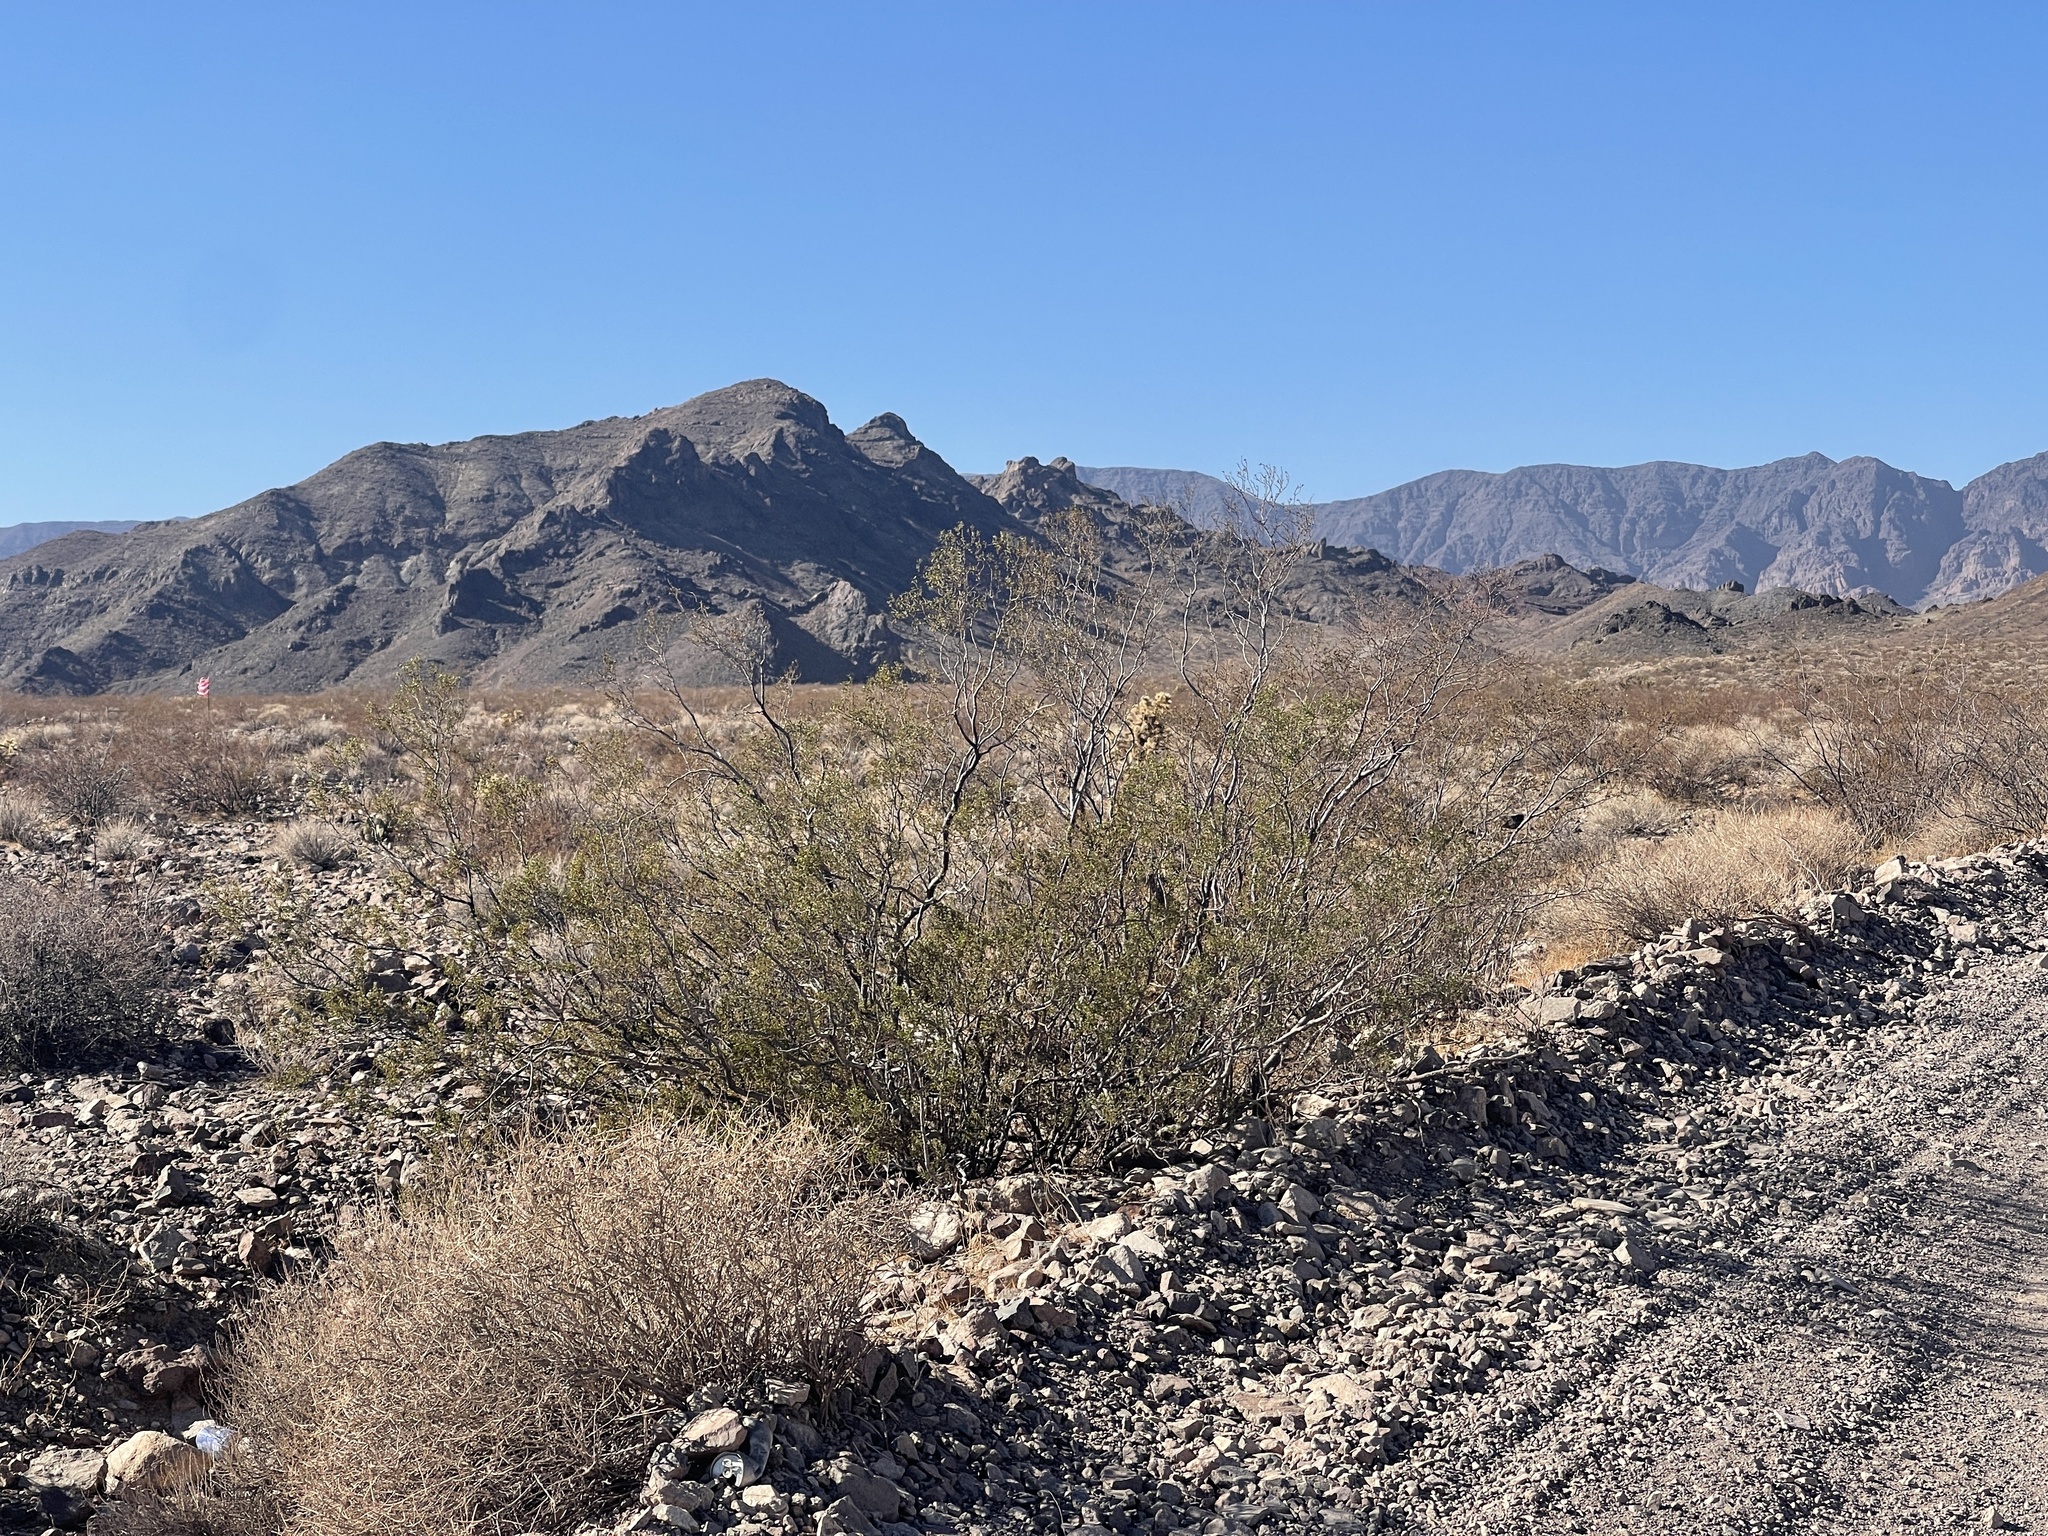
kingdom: Plantae
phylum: Tracheophyta
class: Magnoliopsida
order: Zygophyllales
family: Zygophyllaceae
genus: Larrea
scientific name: Larrea tridentata
